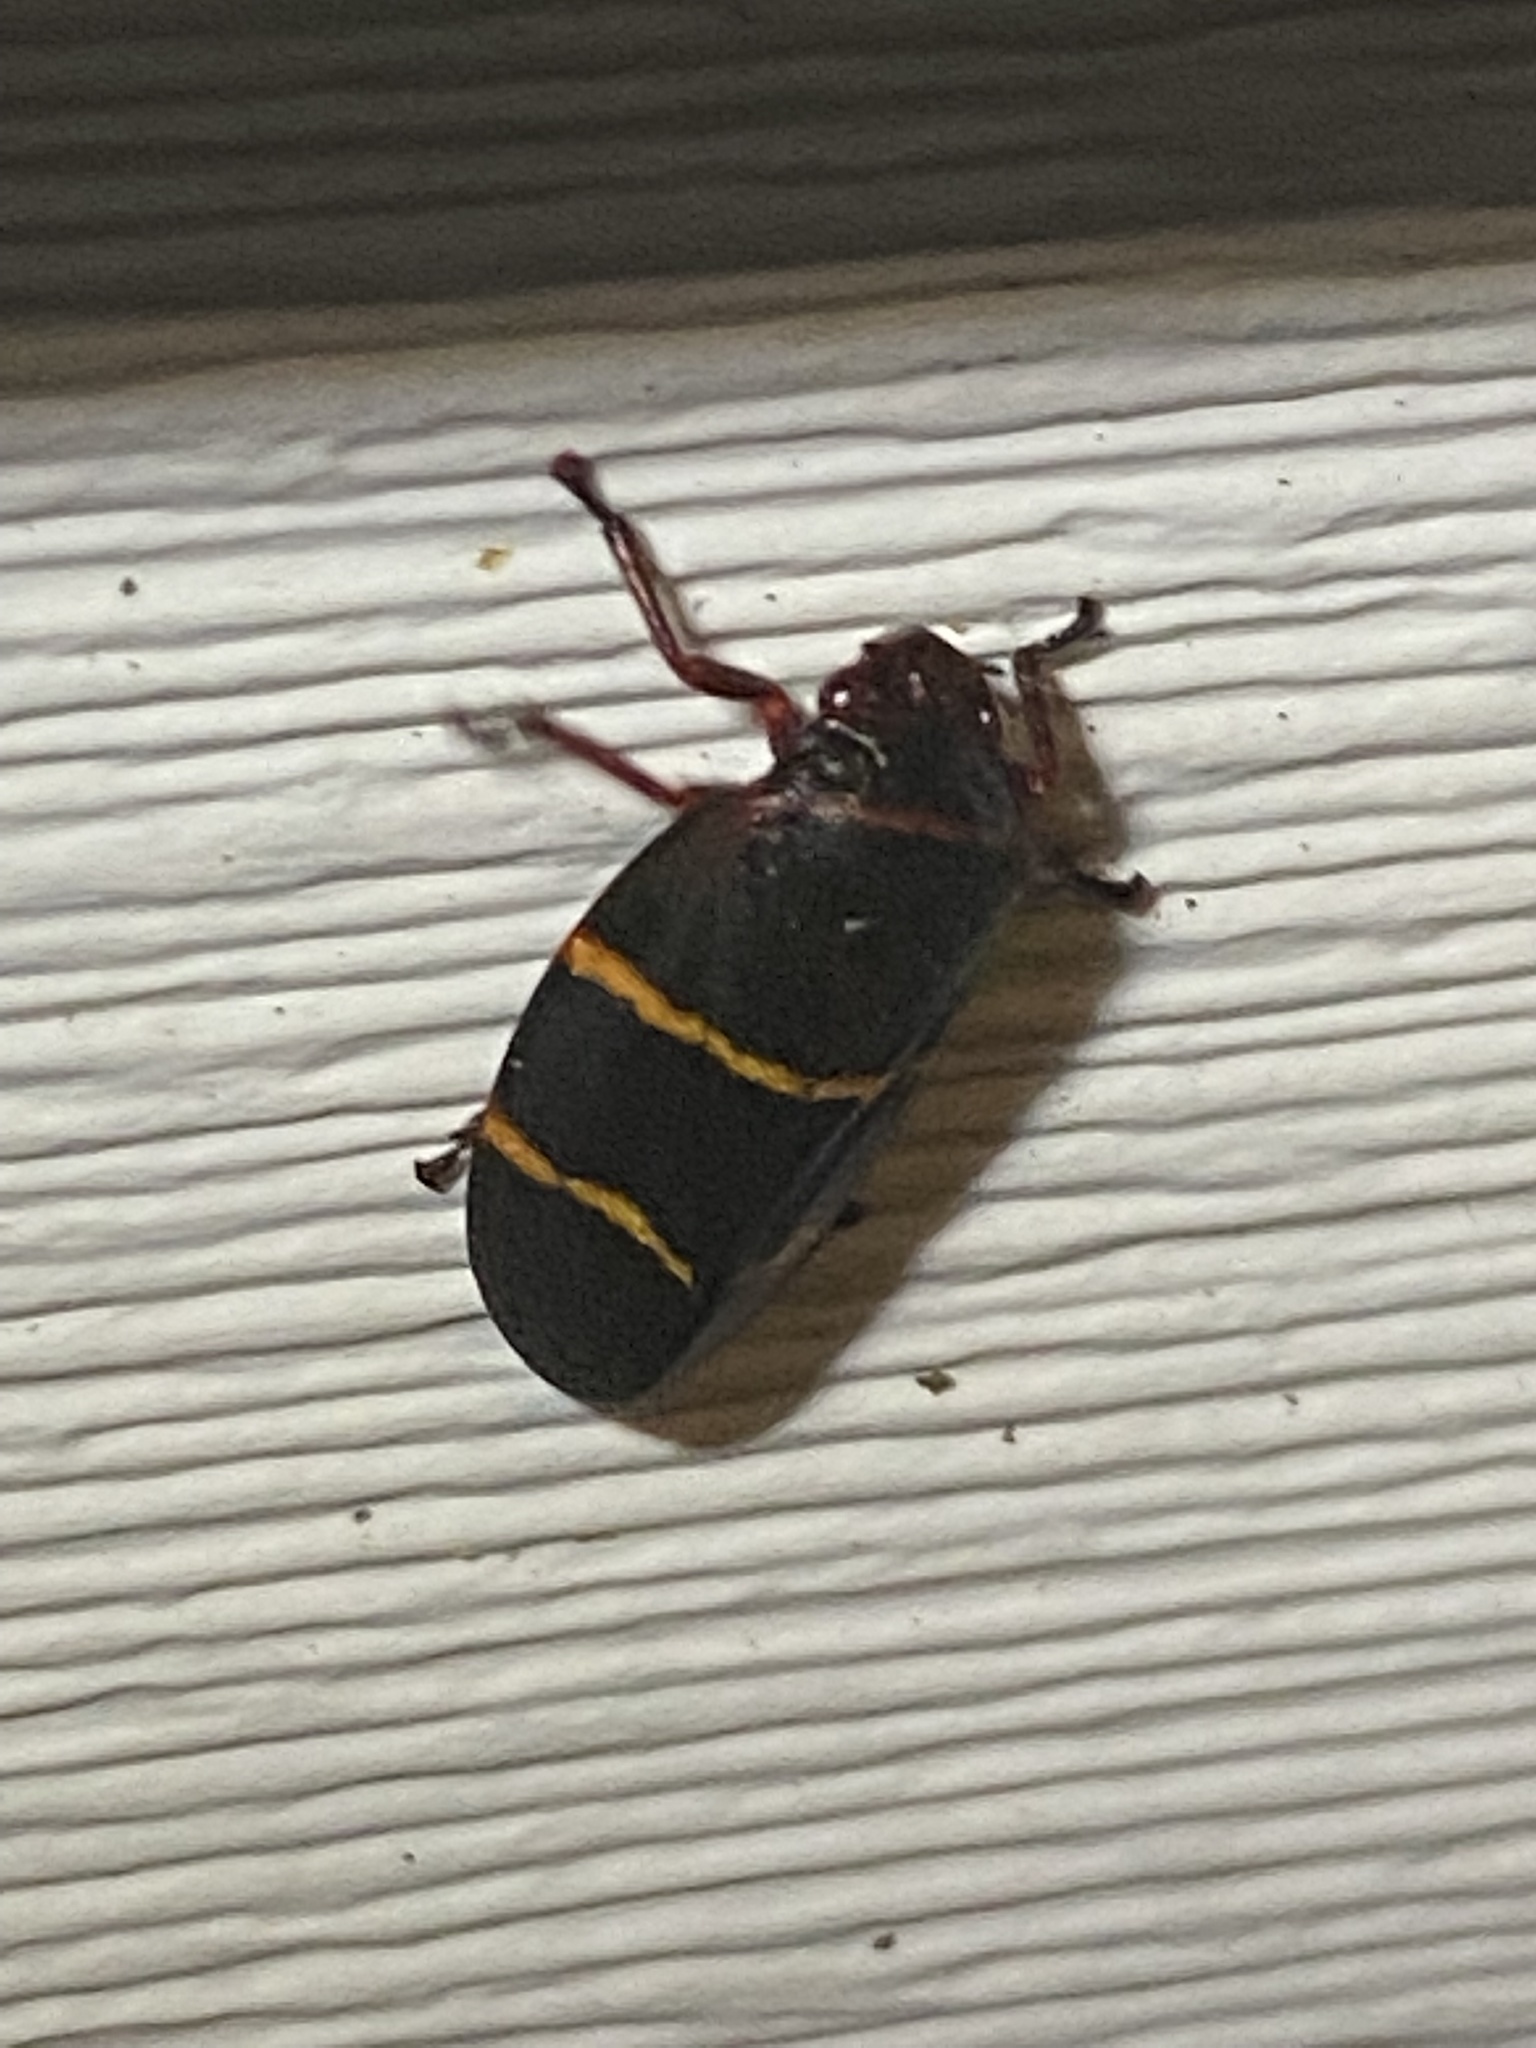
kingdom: Animalia
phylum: Arthropoda
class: Insecta
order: Hemiptera
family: Cercopidae
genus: Prosapia
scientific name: Prosapia bicincta
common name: Twolined spittlebug
